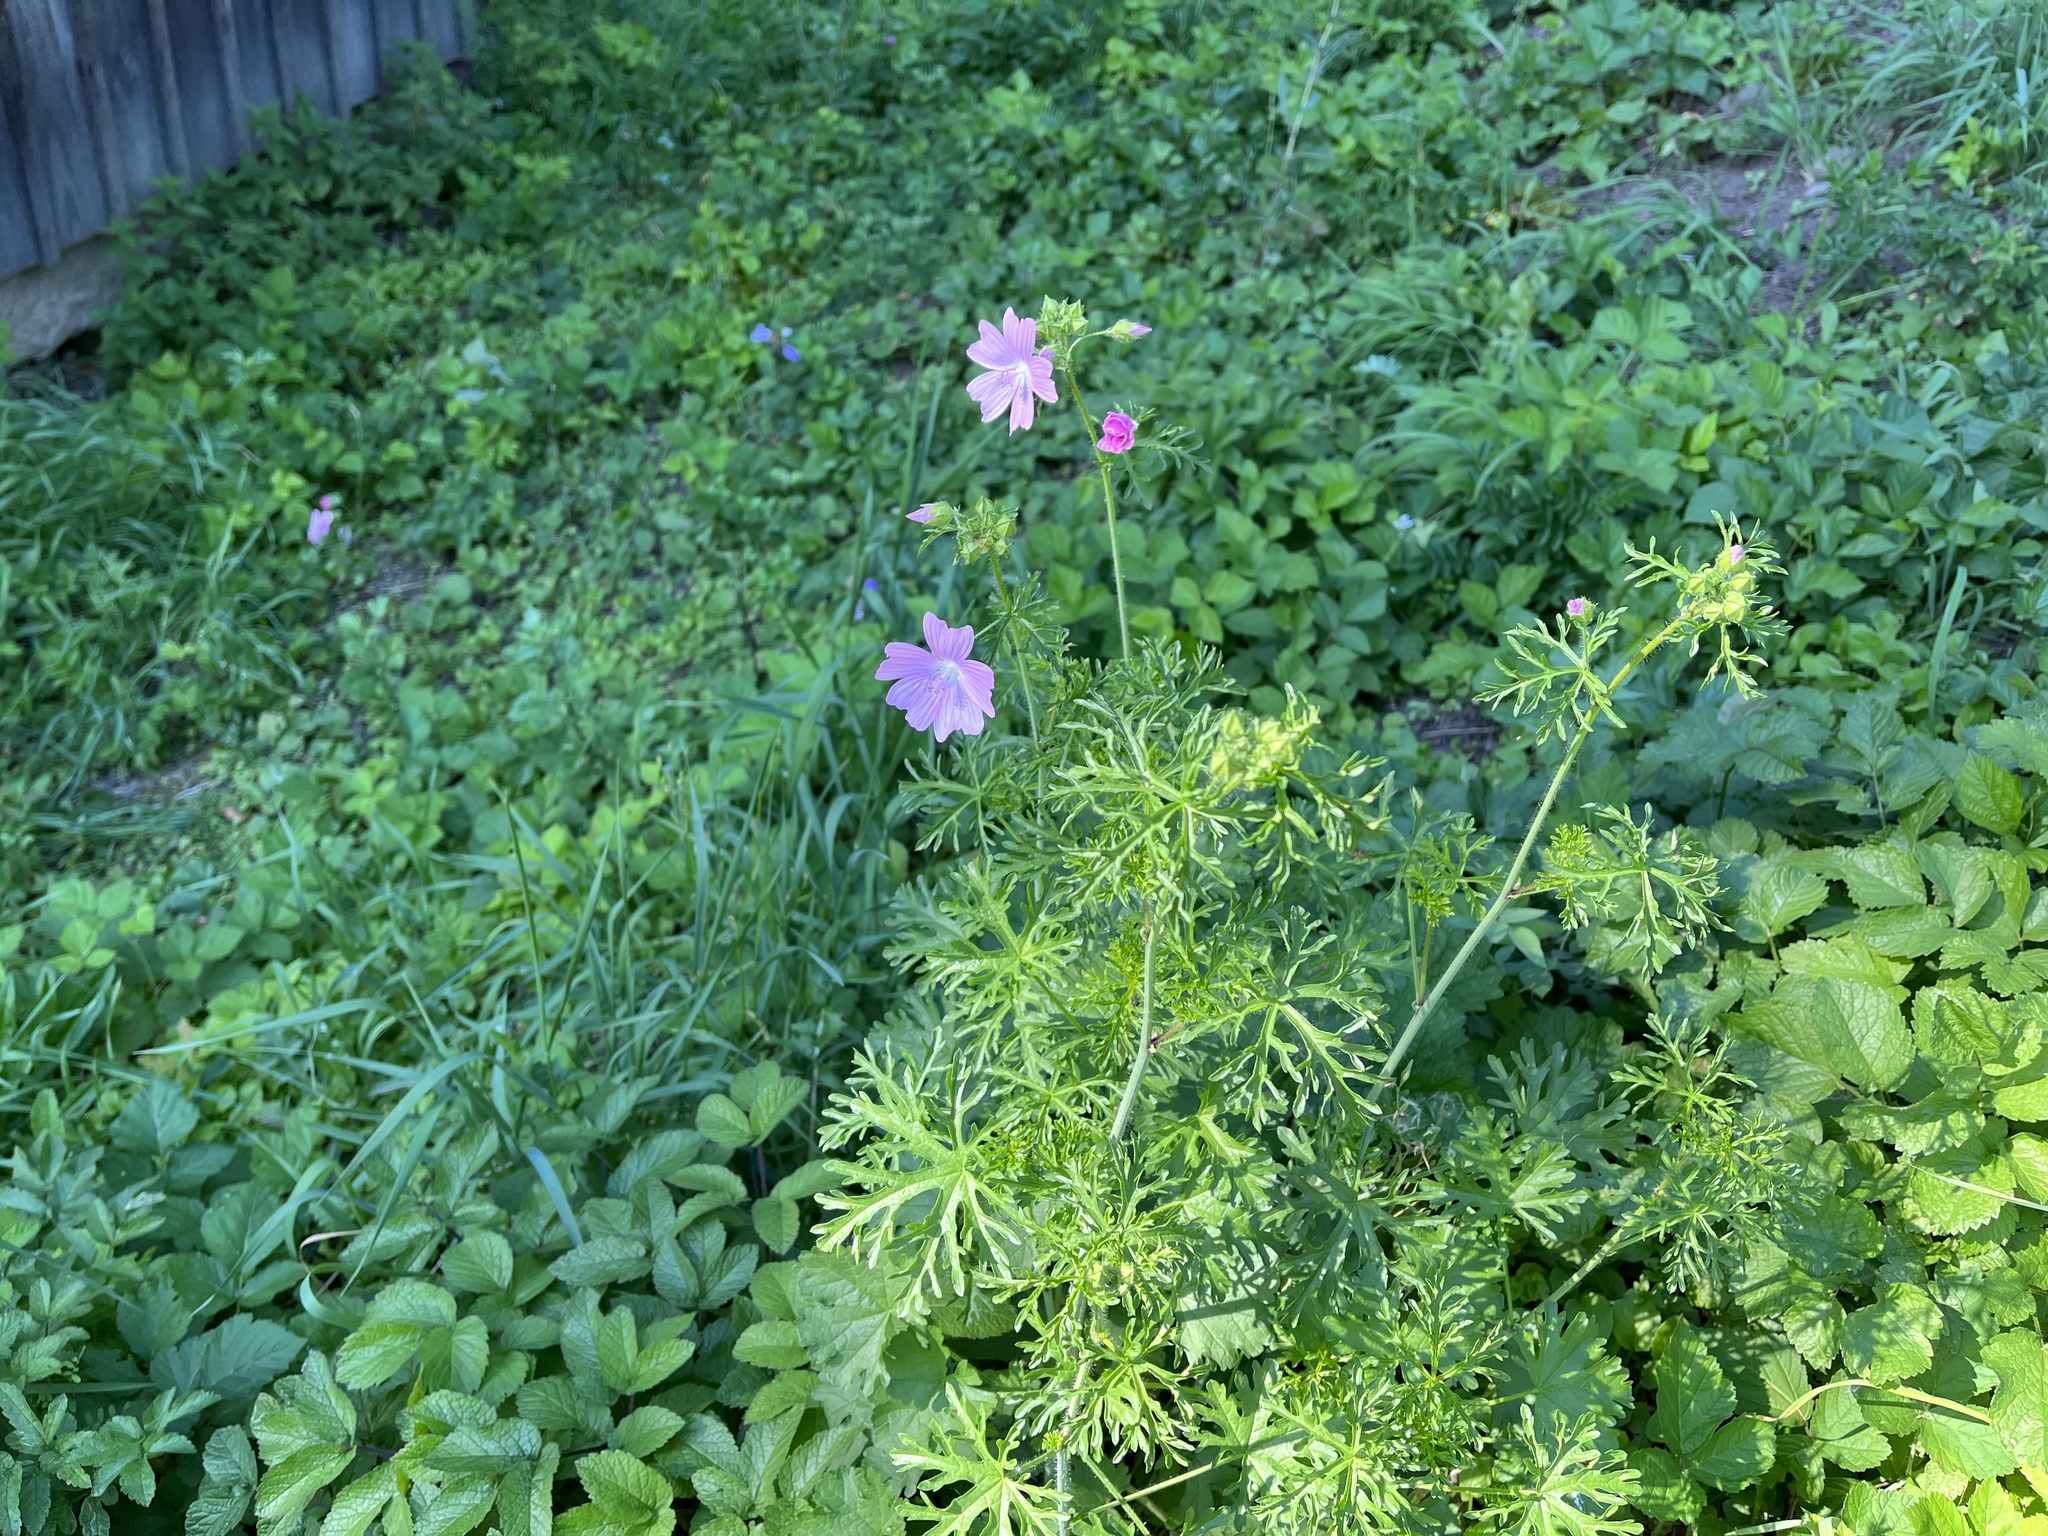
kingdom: Plantae
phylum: Tracheophyta
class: Magnoliopsida
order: Malvales
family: Malvaceae
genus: Malva
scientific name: Malva moschata
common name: Musk mallow
